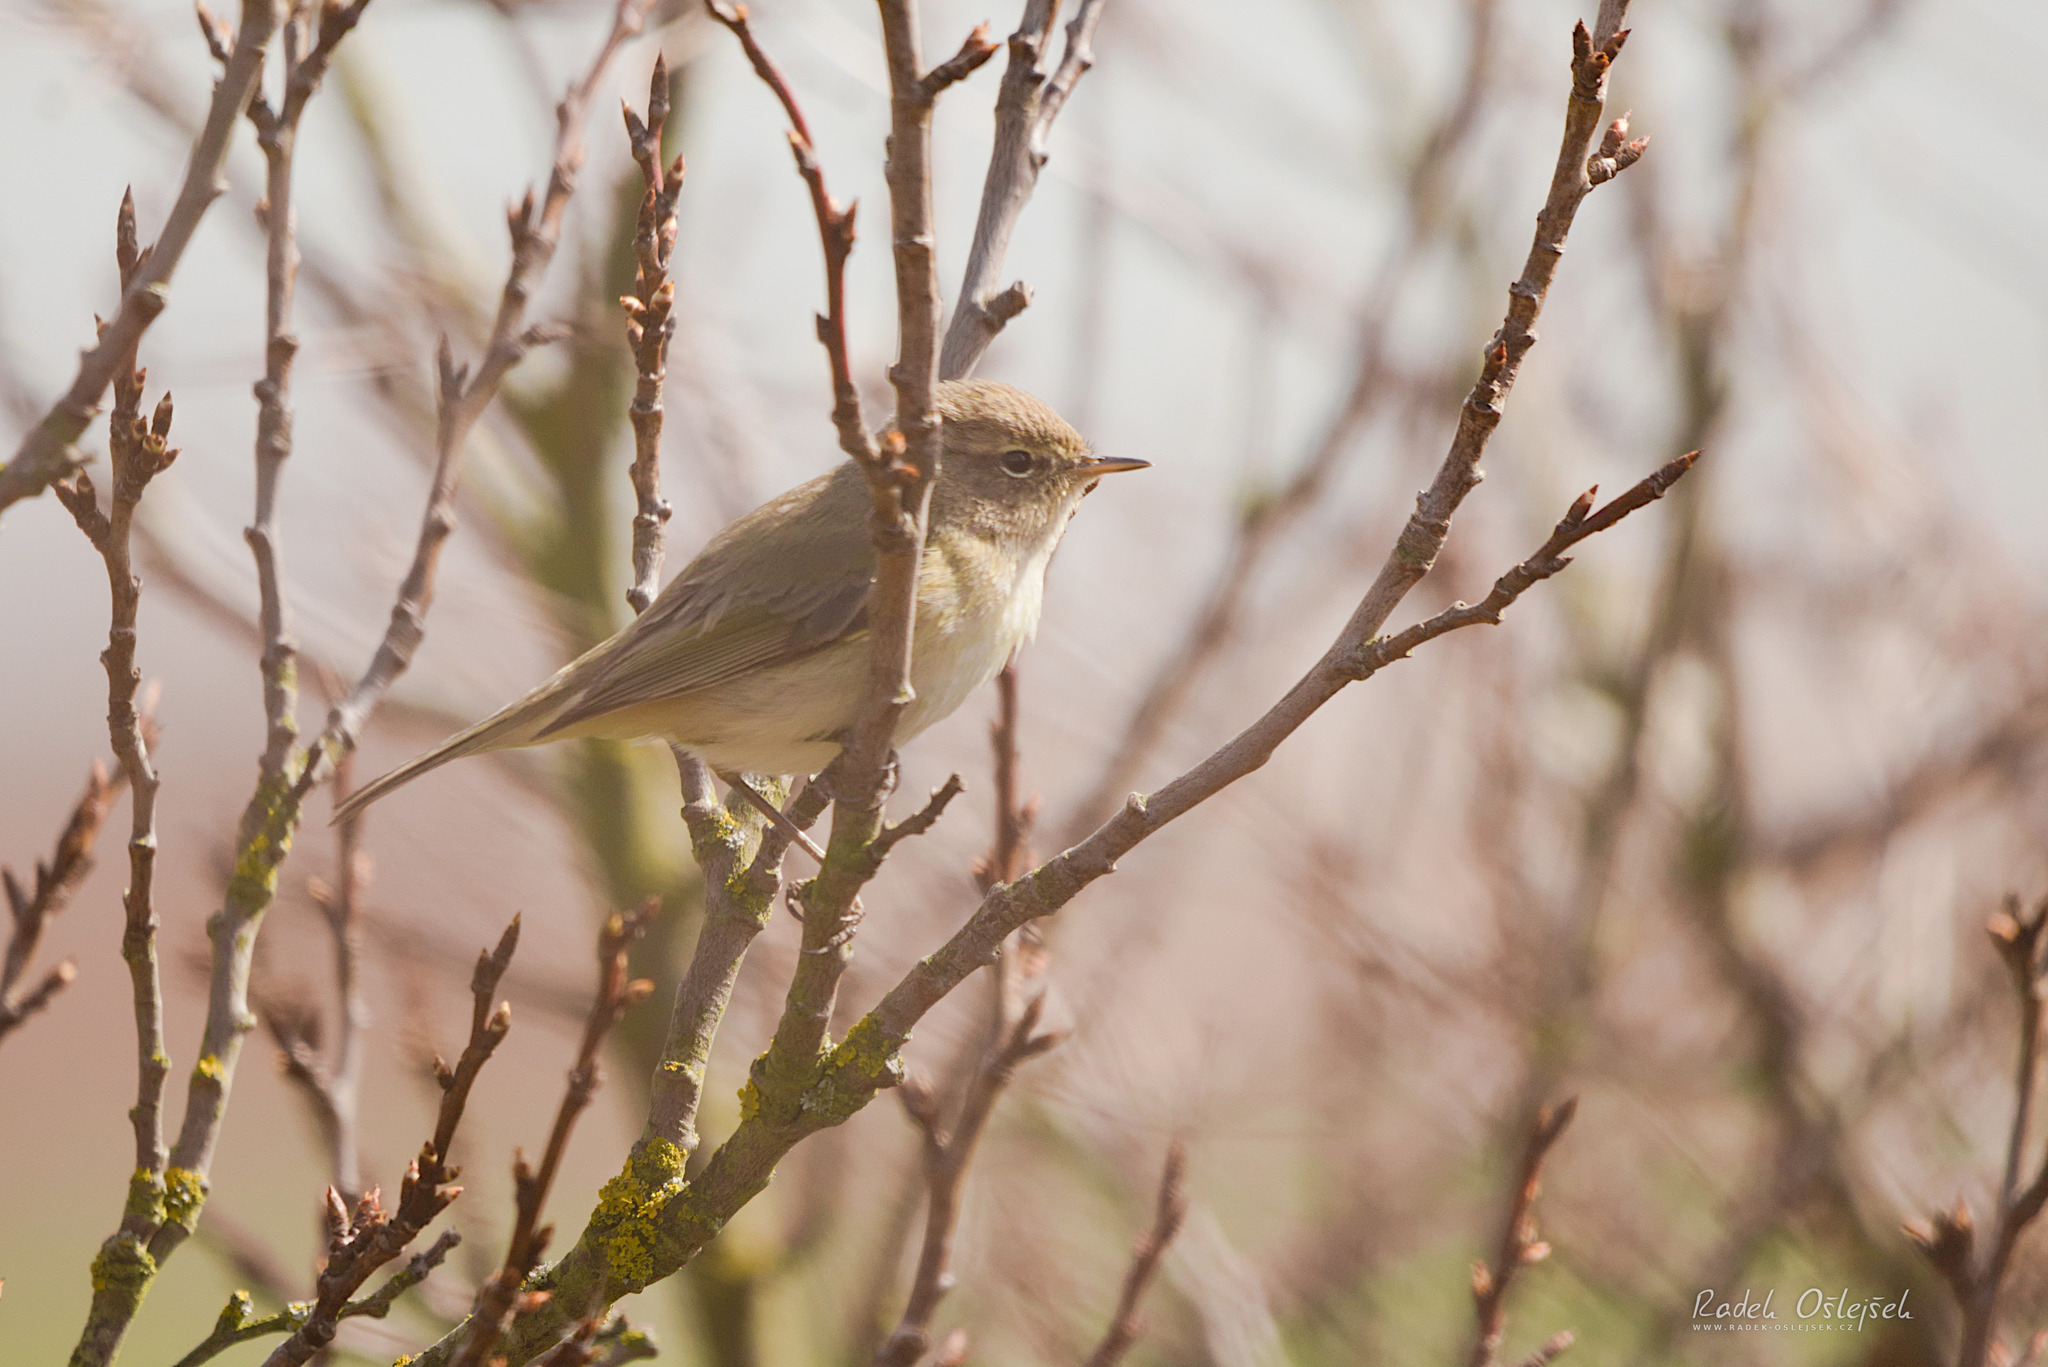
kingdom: Animalia
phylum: Chordata
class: Aves
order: Passeriformes
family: Phylloscopidae
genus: Phylloscopus
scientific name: Phylloscopus collybita
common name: Common chiffchaff
